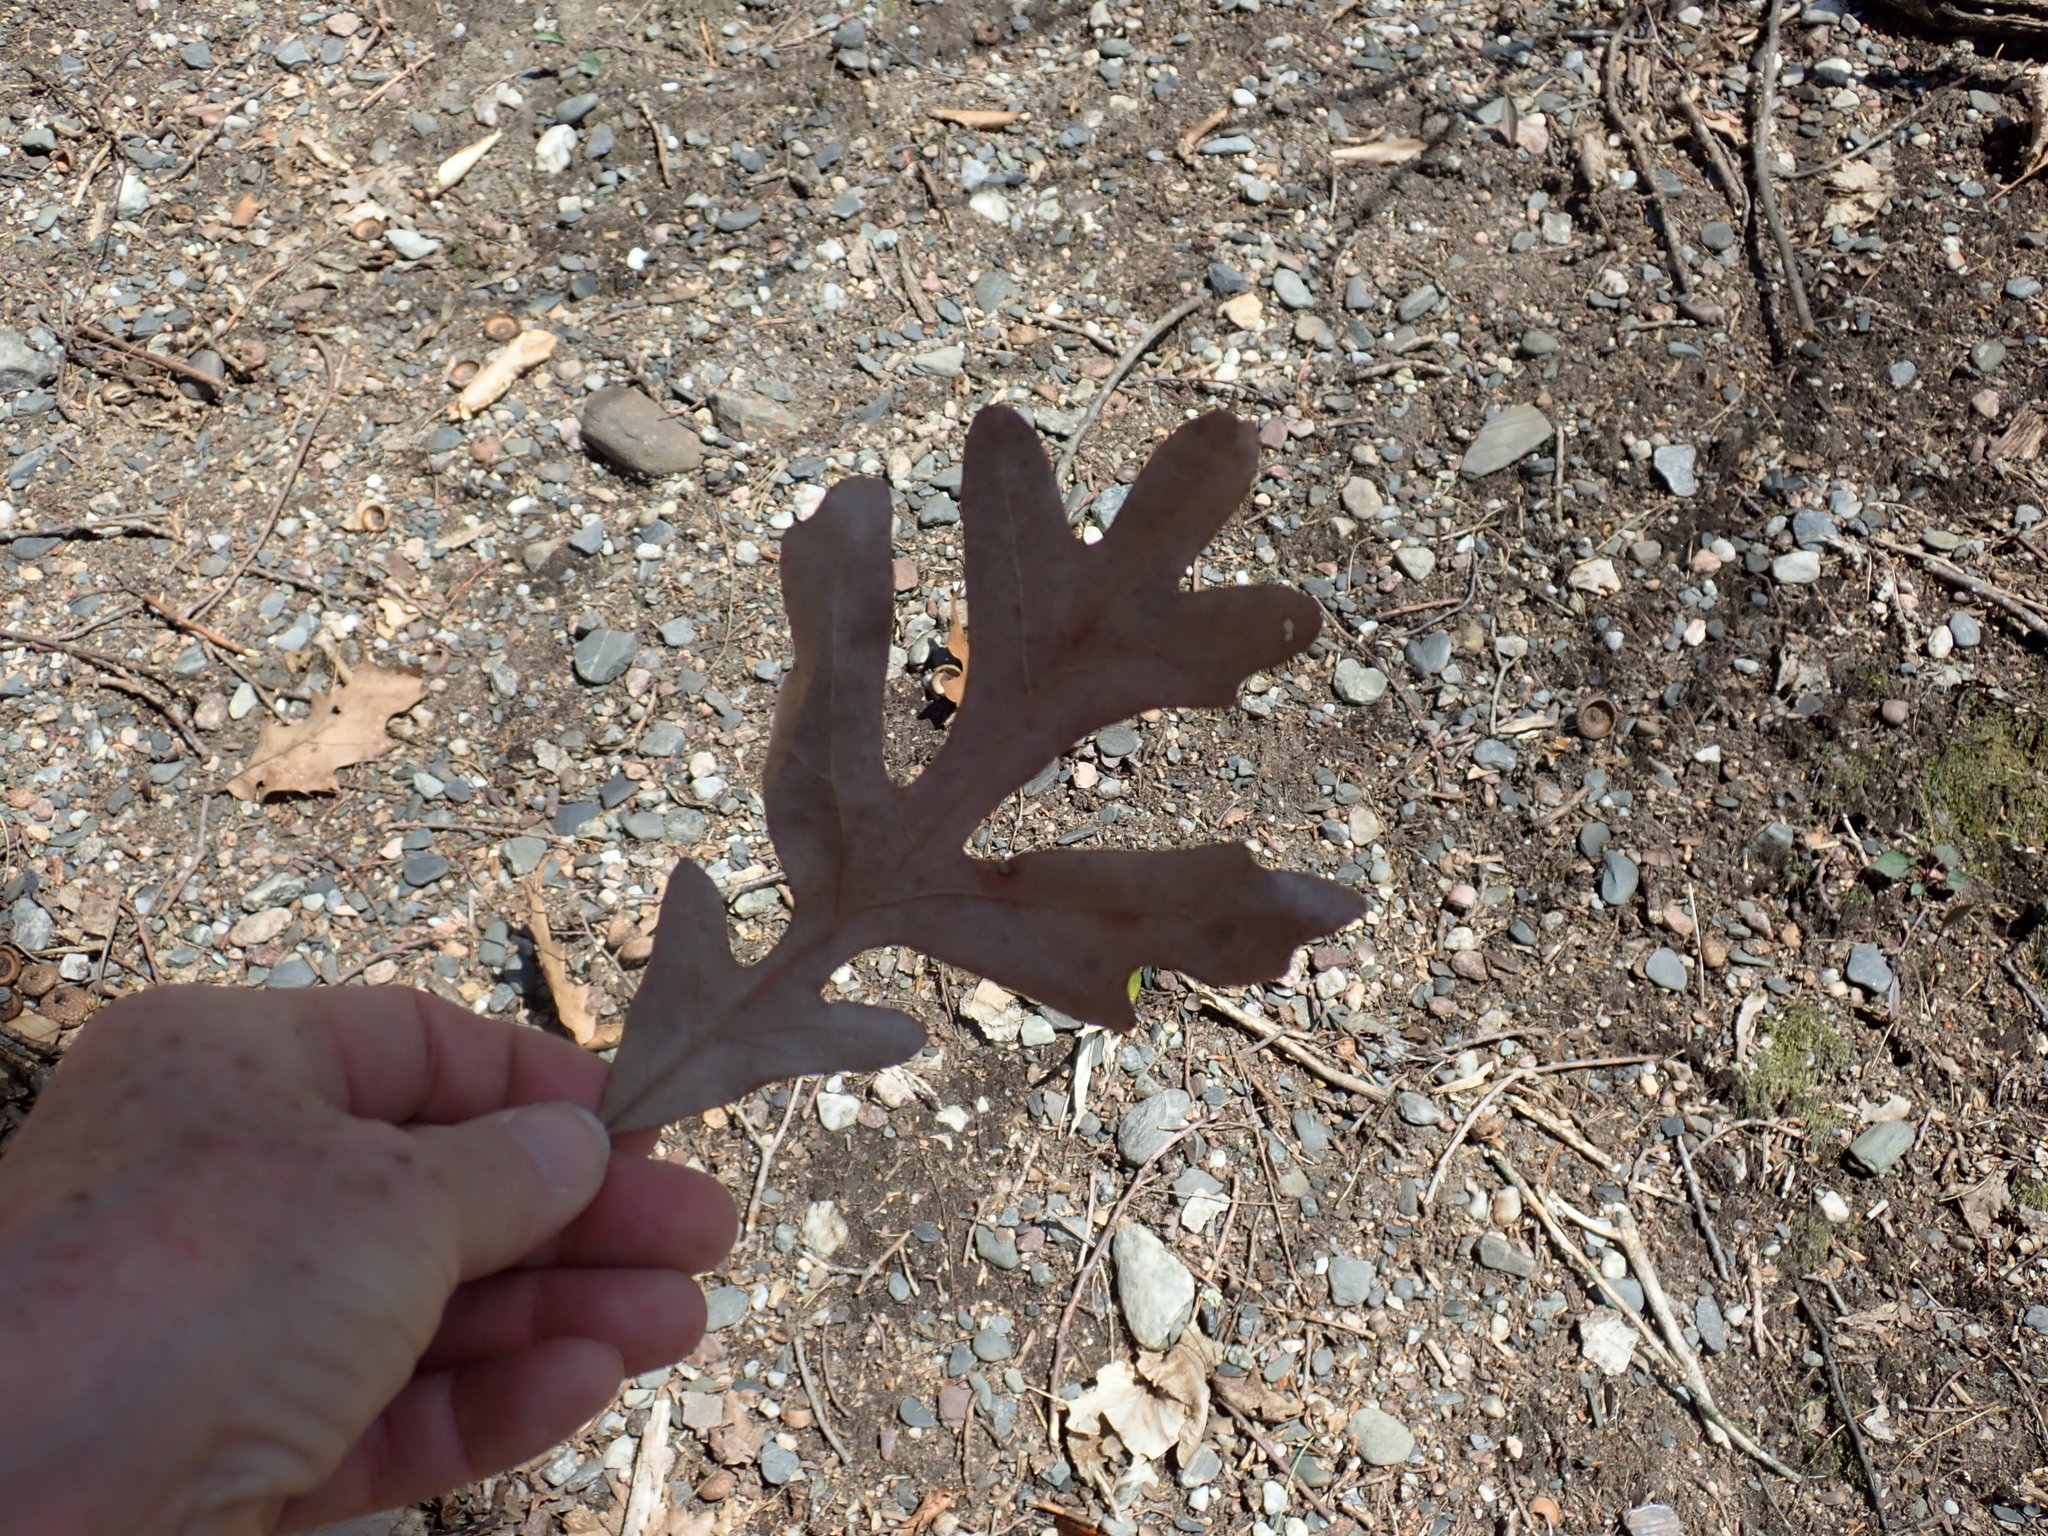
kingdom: Plantae
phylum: Tracheophyta
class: Magnoliopsida
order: Fagales
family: Fagaceae
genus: Quercus
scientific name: Quercus alba
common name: White oak
